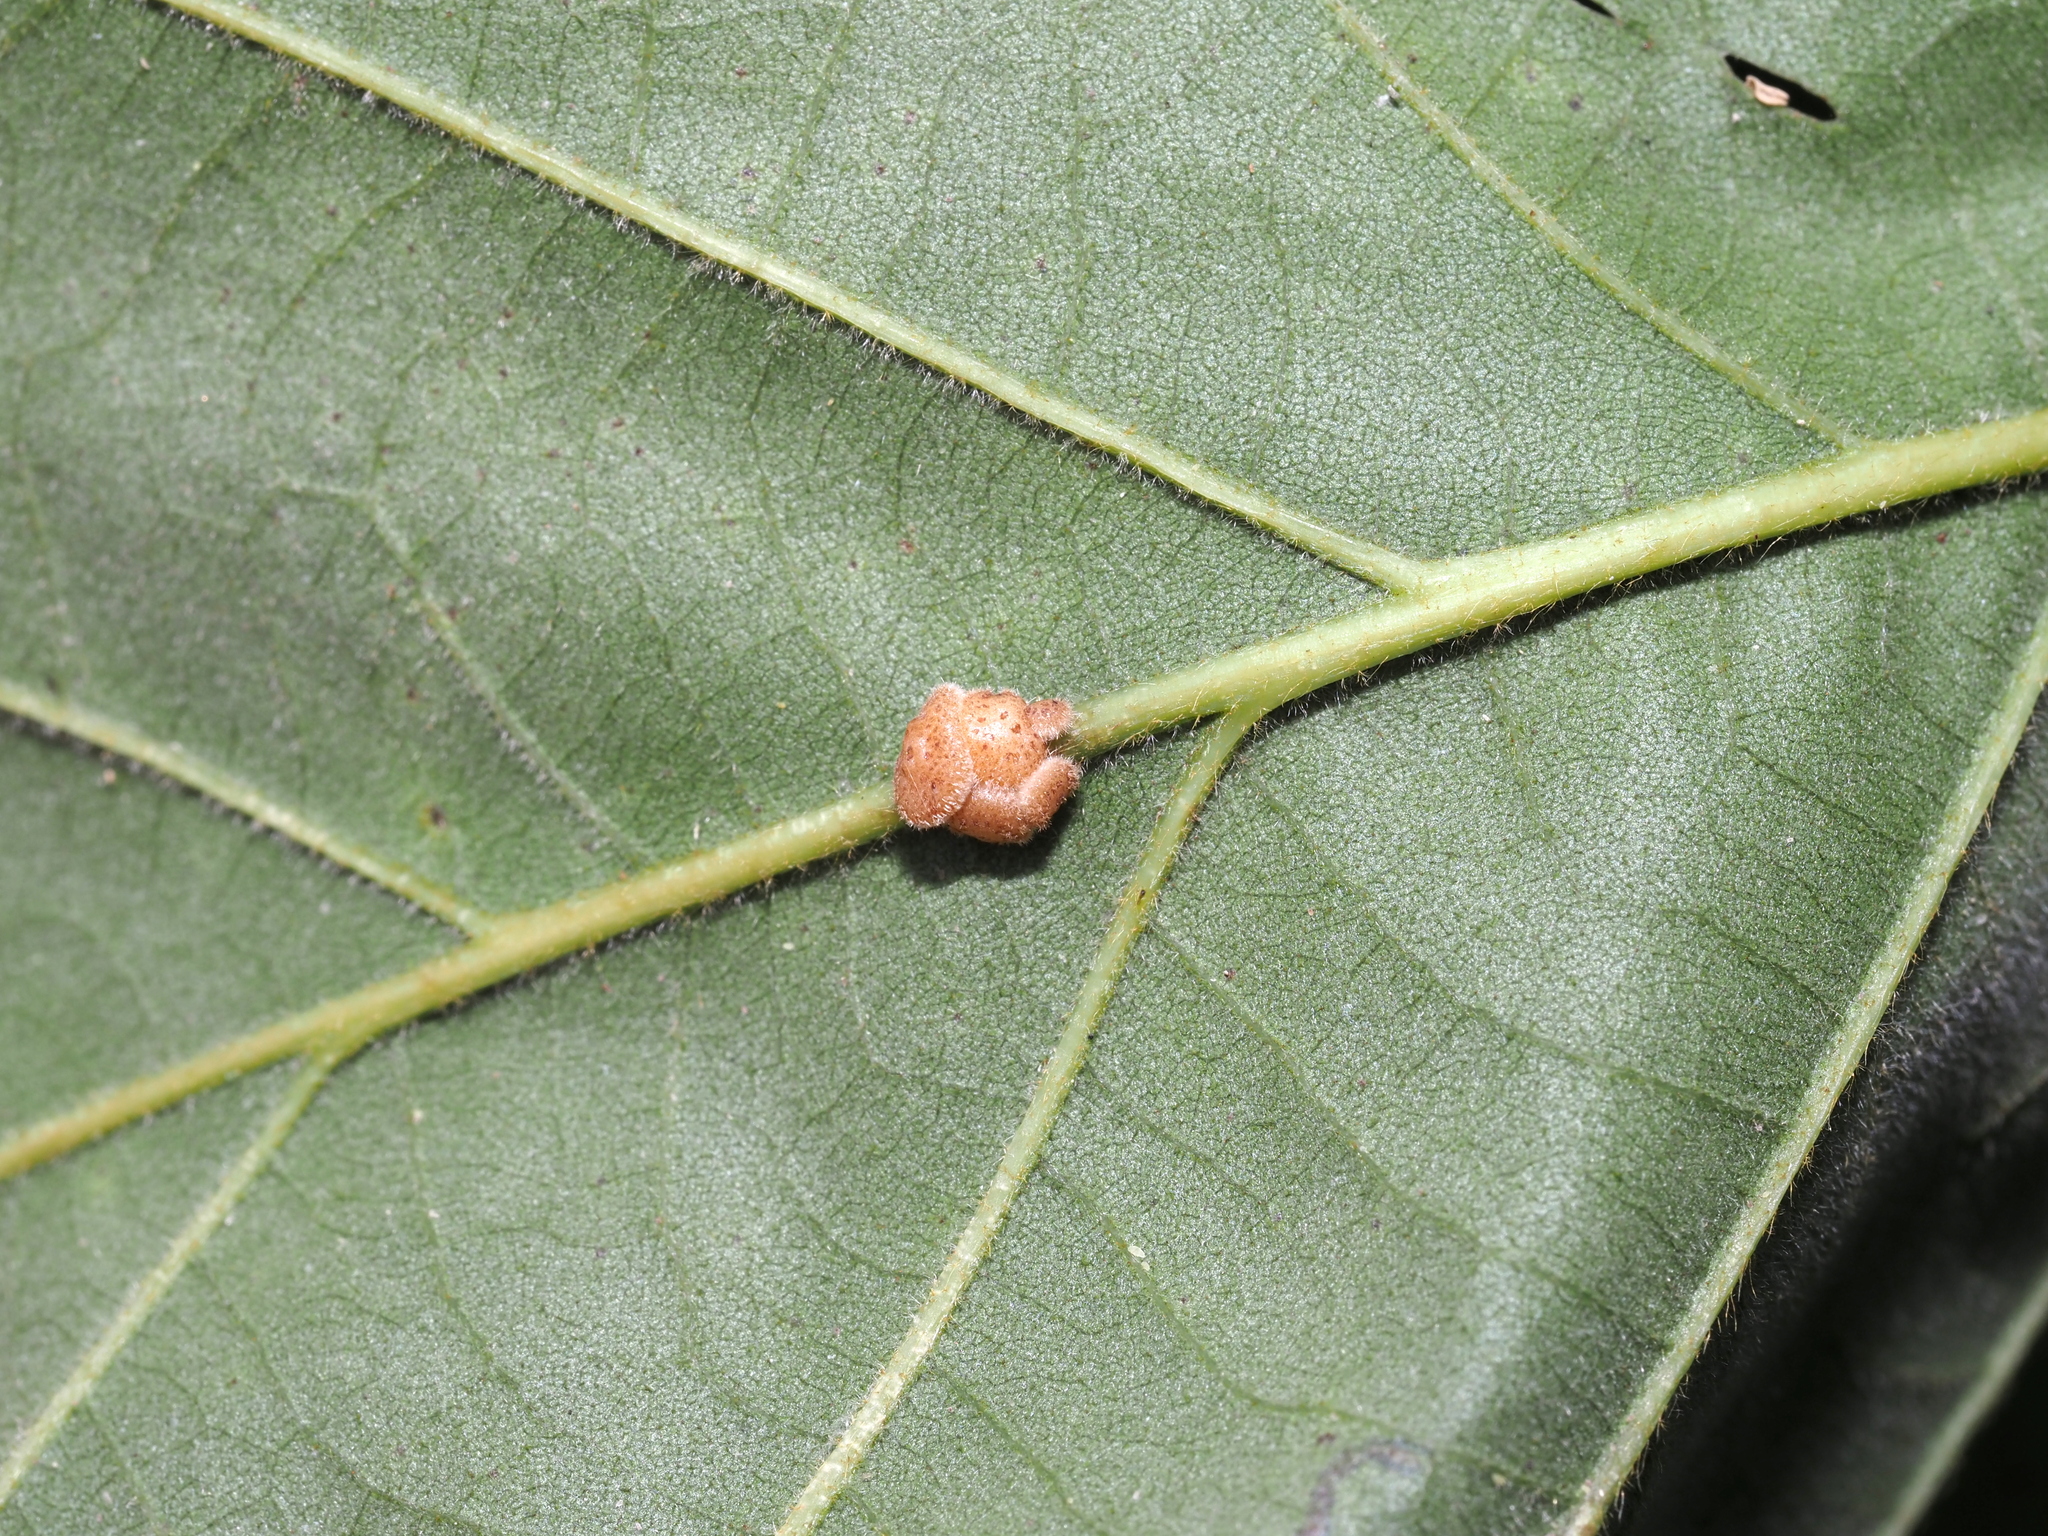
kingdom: Animalia
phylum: Arthropoda
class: Insecta
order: Hymenoptera
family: Cynipidae
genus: Andricus
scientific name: Andricus
